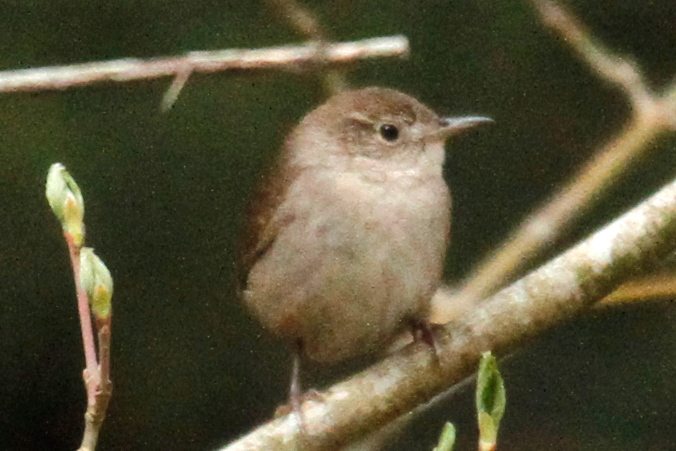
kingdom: Animalia
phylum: Chordata
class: Aves
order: Passeriformes
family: Troglodytidae
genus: Troglodytes
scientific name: Troglodytes aedon
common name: House wren
